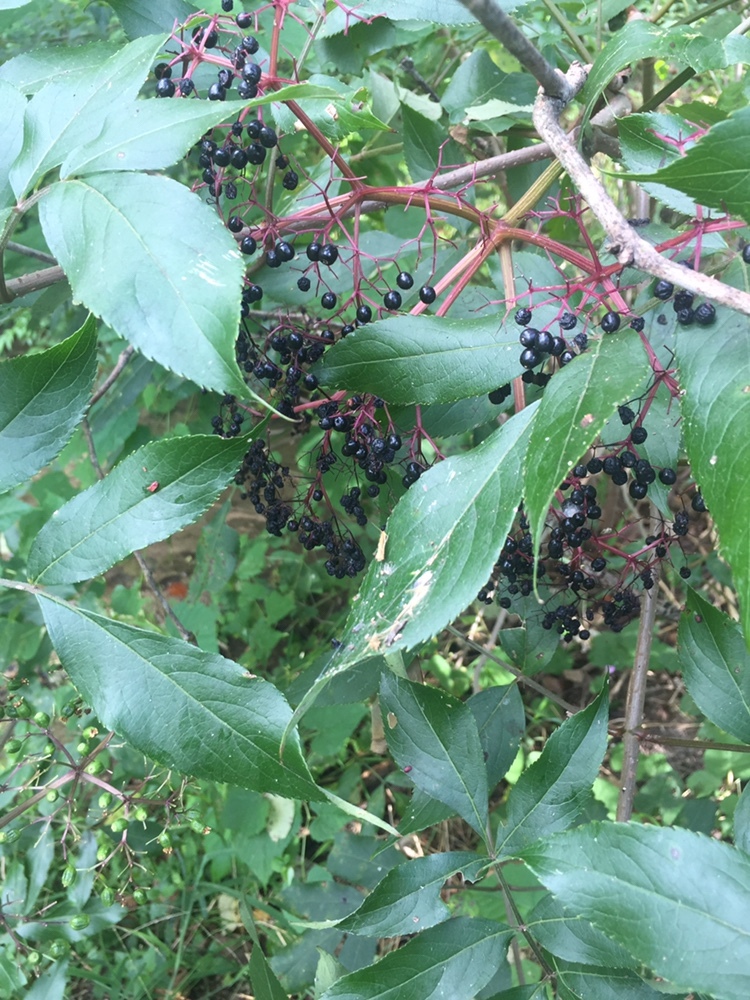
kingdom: Plantae
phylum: Tracheophyta
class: Magnoliopsida
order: Dipsacales
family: Viburnaceae
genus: Sambucus
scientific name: Sambucus canadensis
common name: American elder
